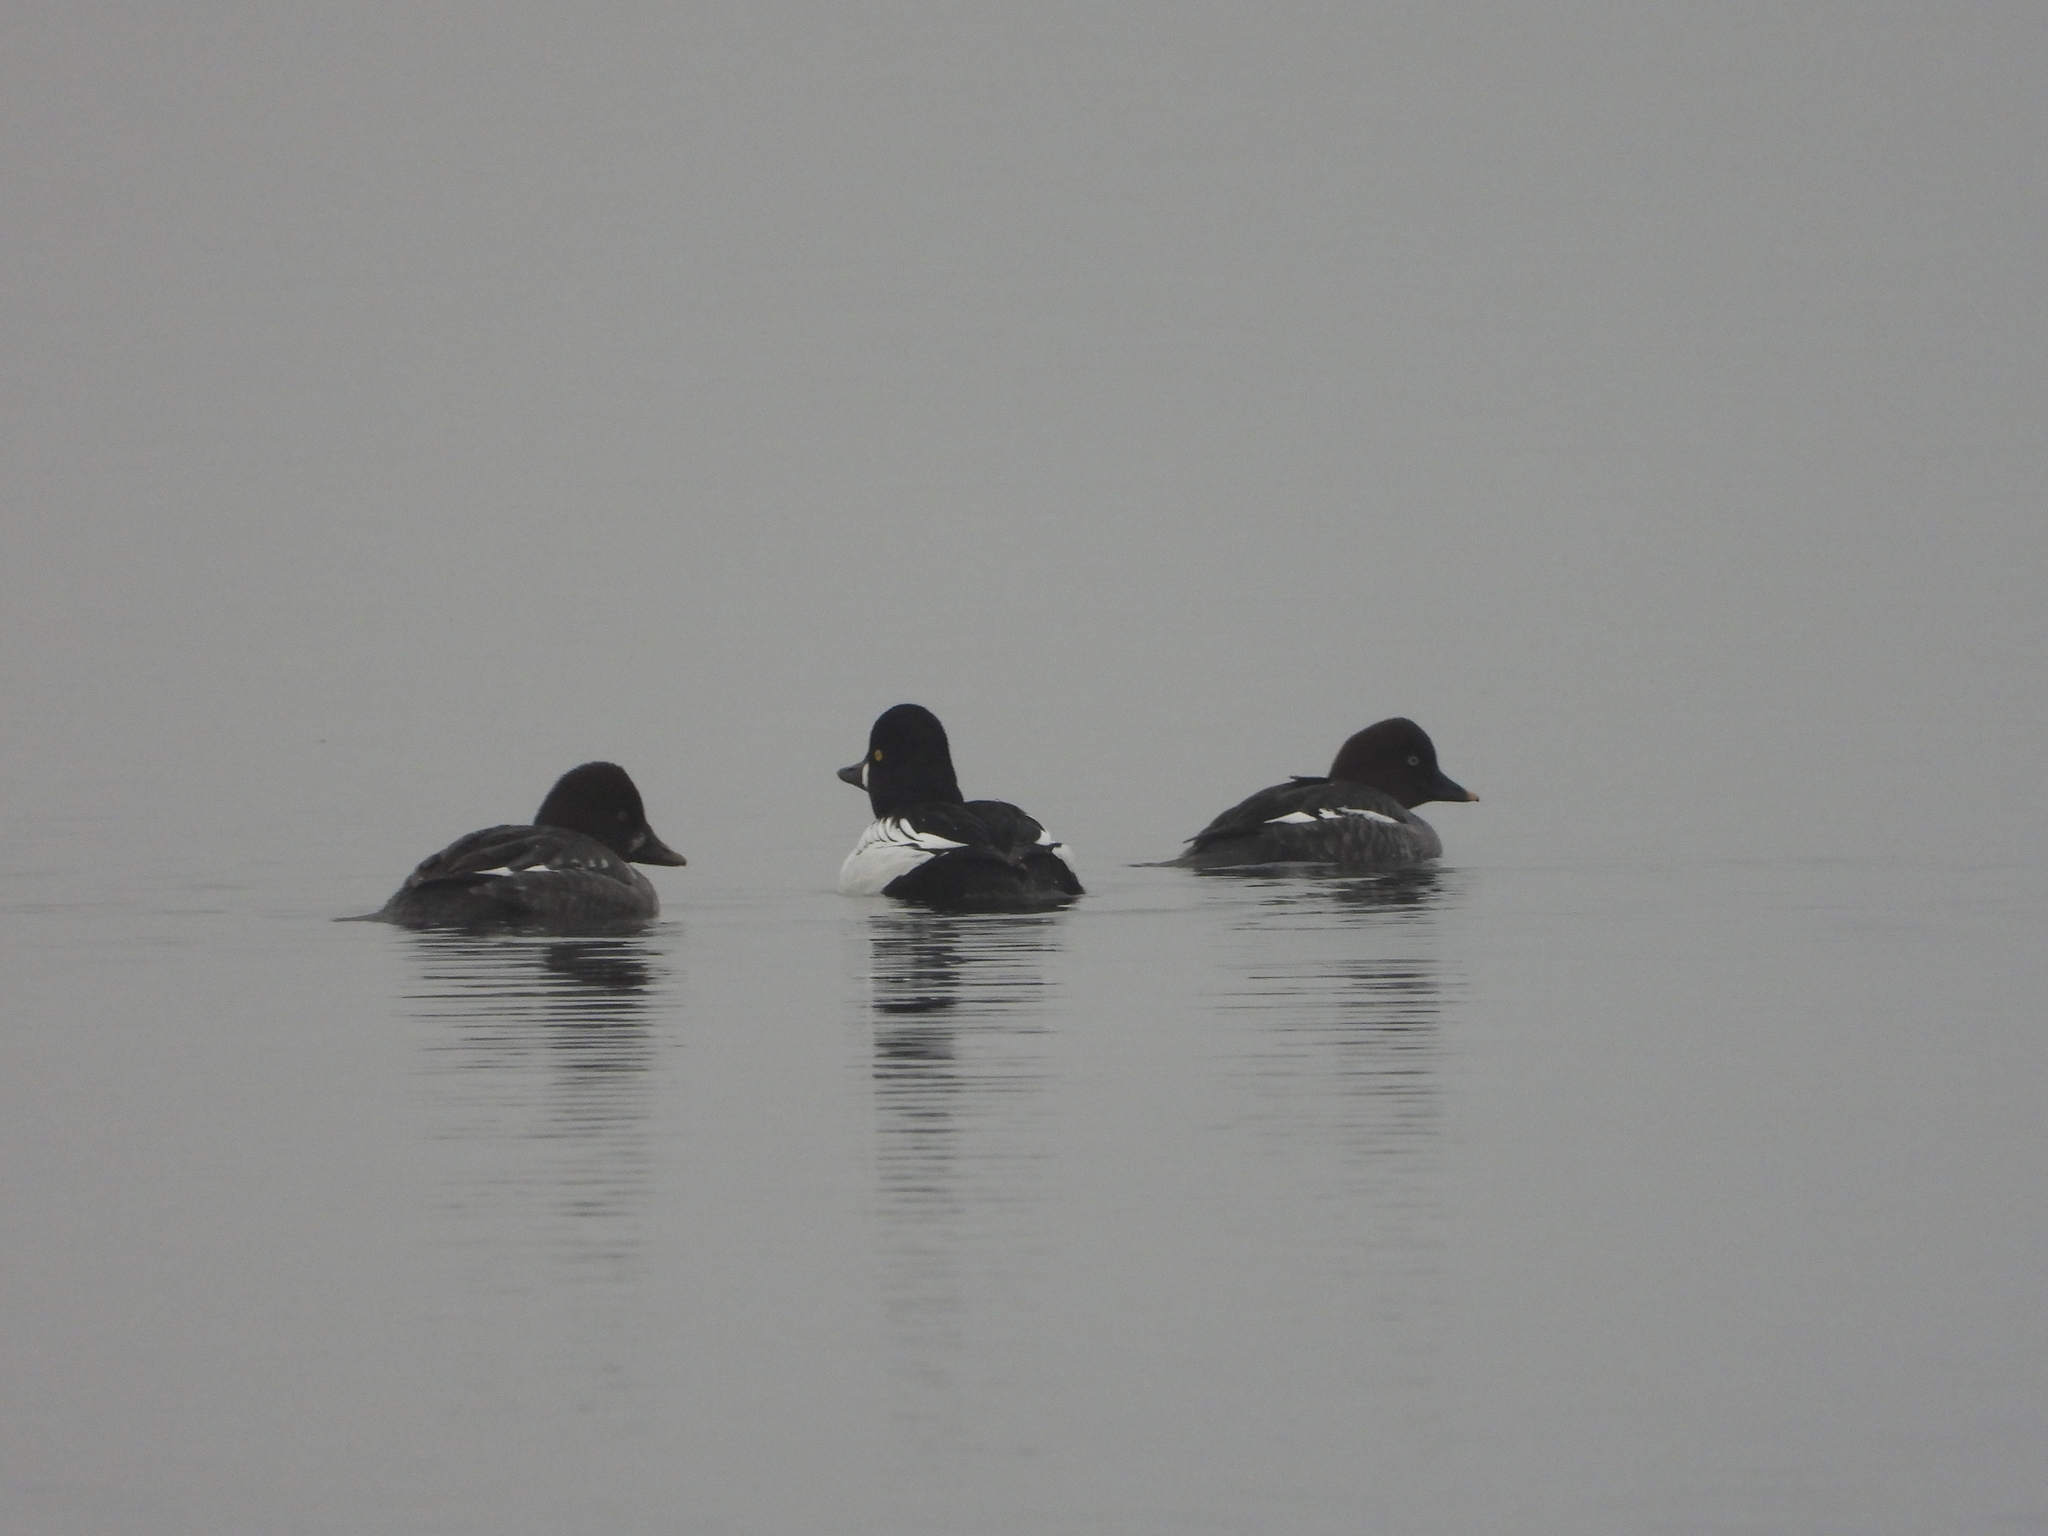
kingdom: Animalia
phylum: Chordata
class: Aves
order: Anseriformes
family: Anatidae
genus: Bucephala
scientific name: Bucephala clangula
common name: Common goldeneye
